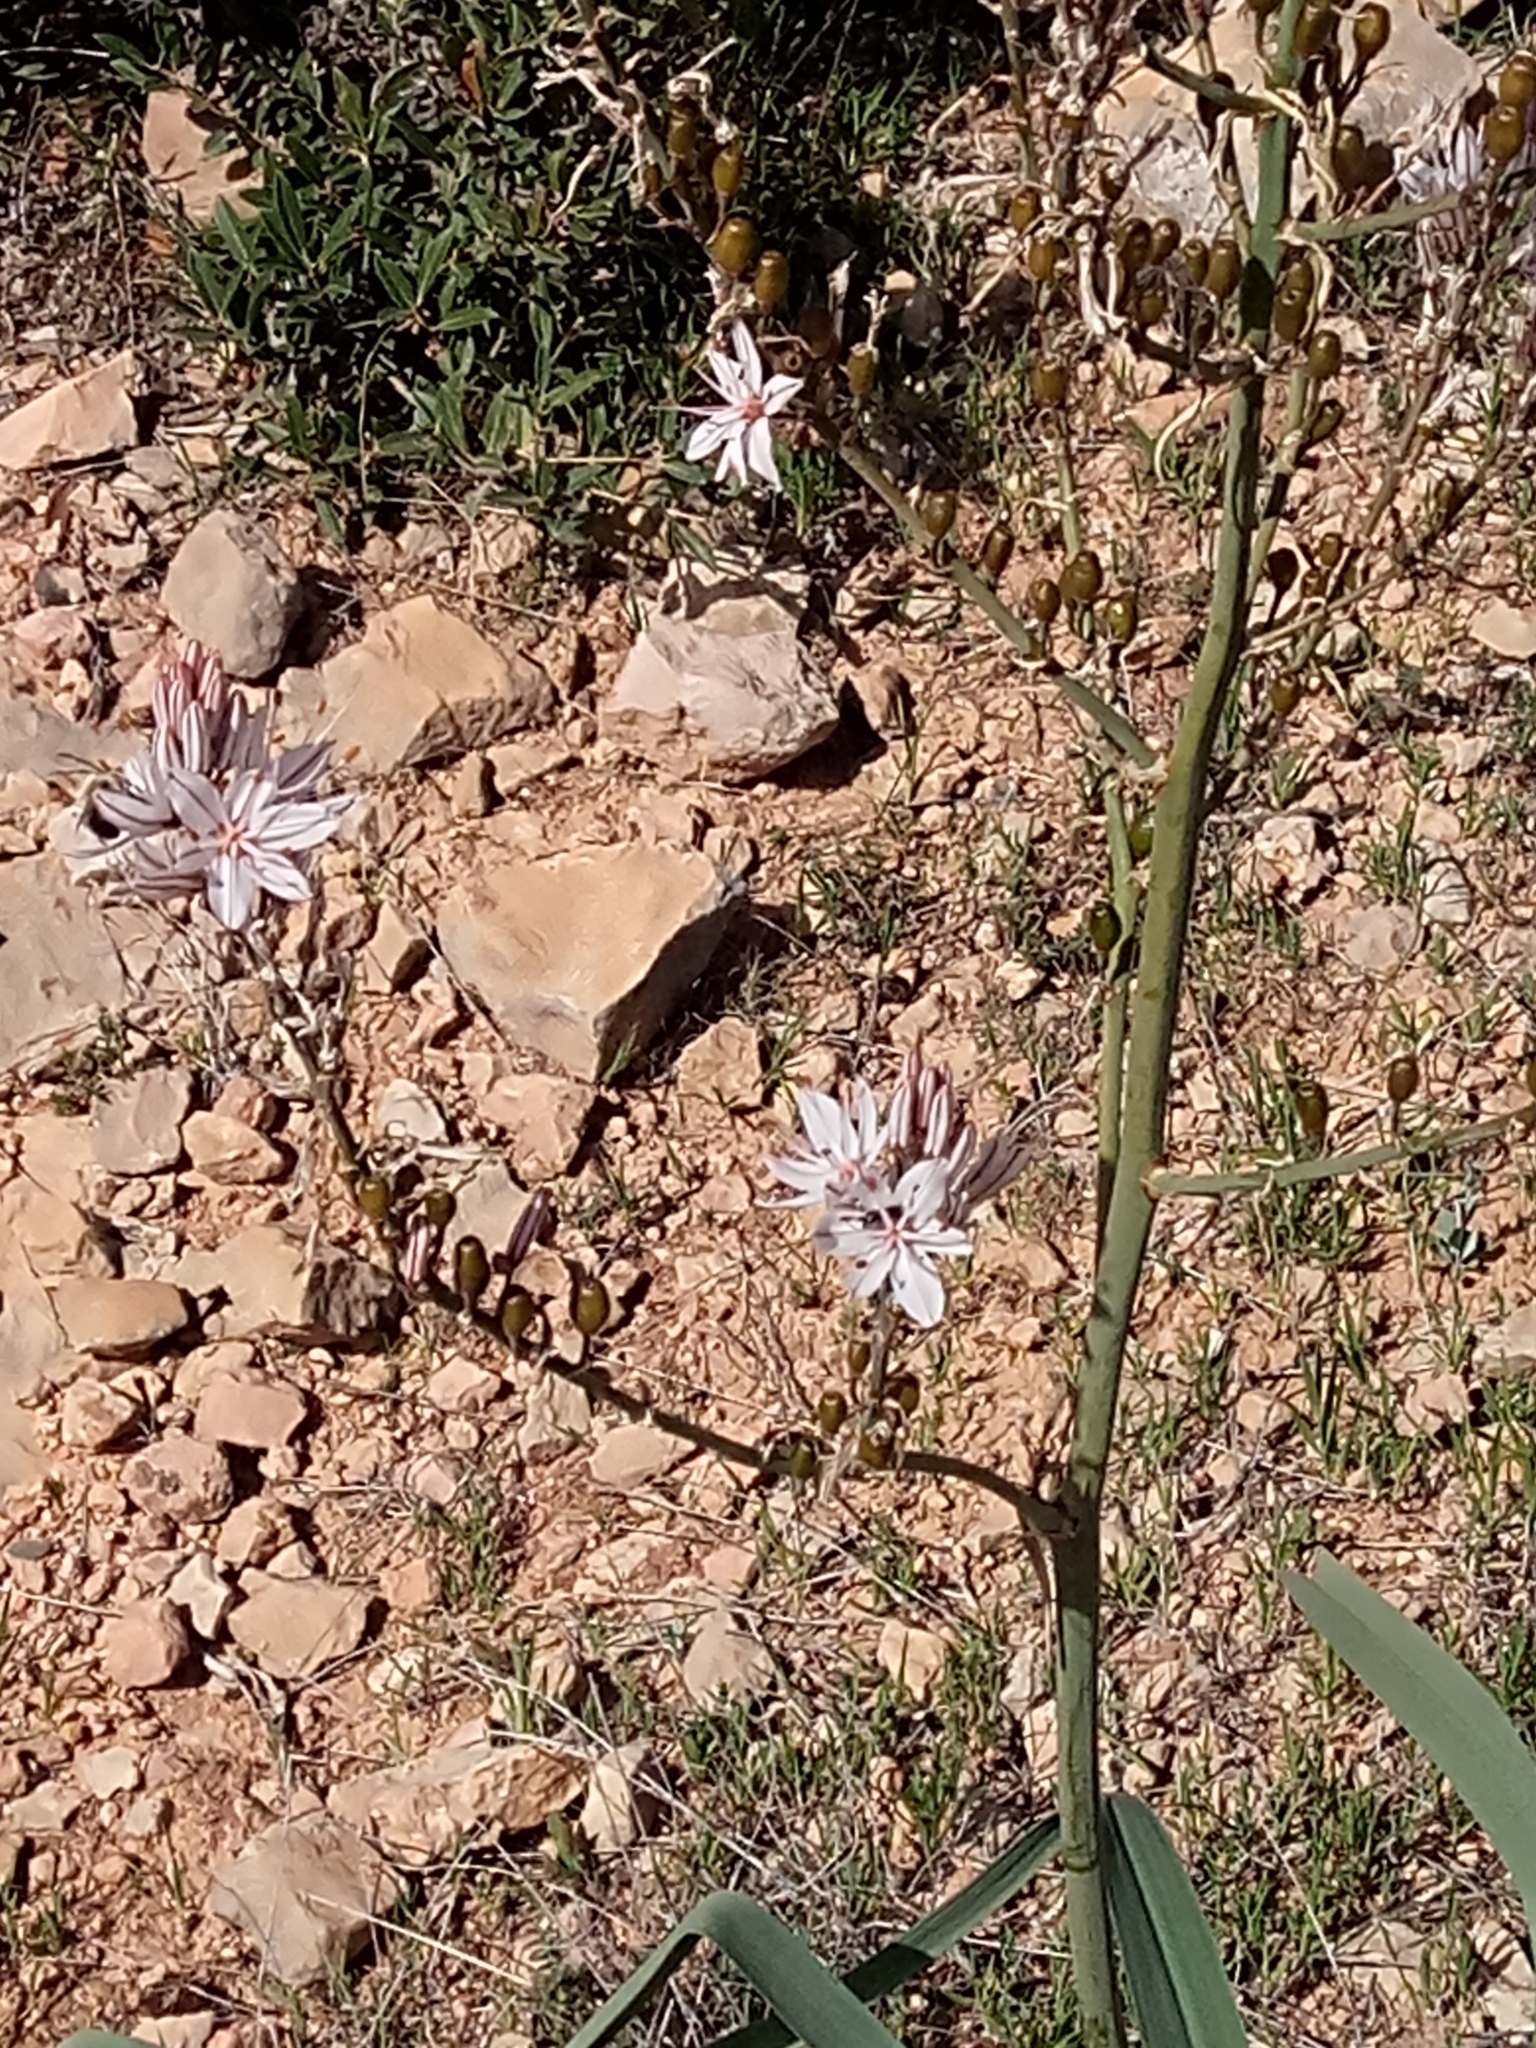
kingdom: Plantae
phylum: Tracheophyta
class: Liliopsida
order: Asparagales
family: Asphodelaceae
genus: Asphodelus
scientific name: Asphodelus ramosus
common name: Silverrod
